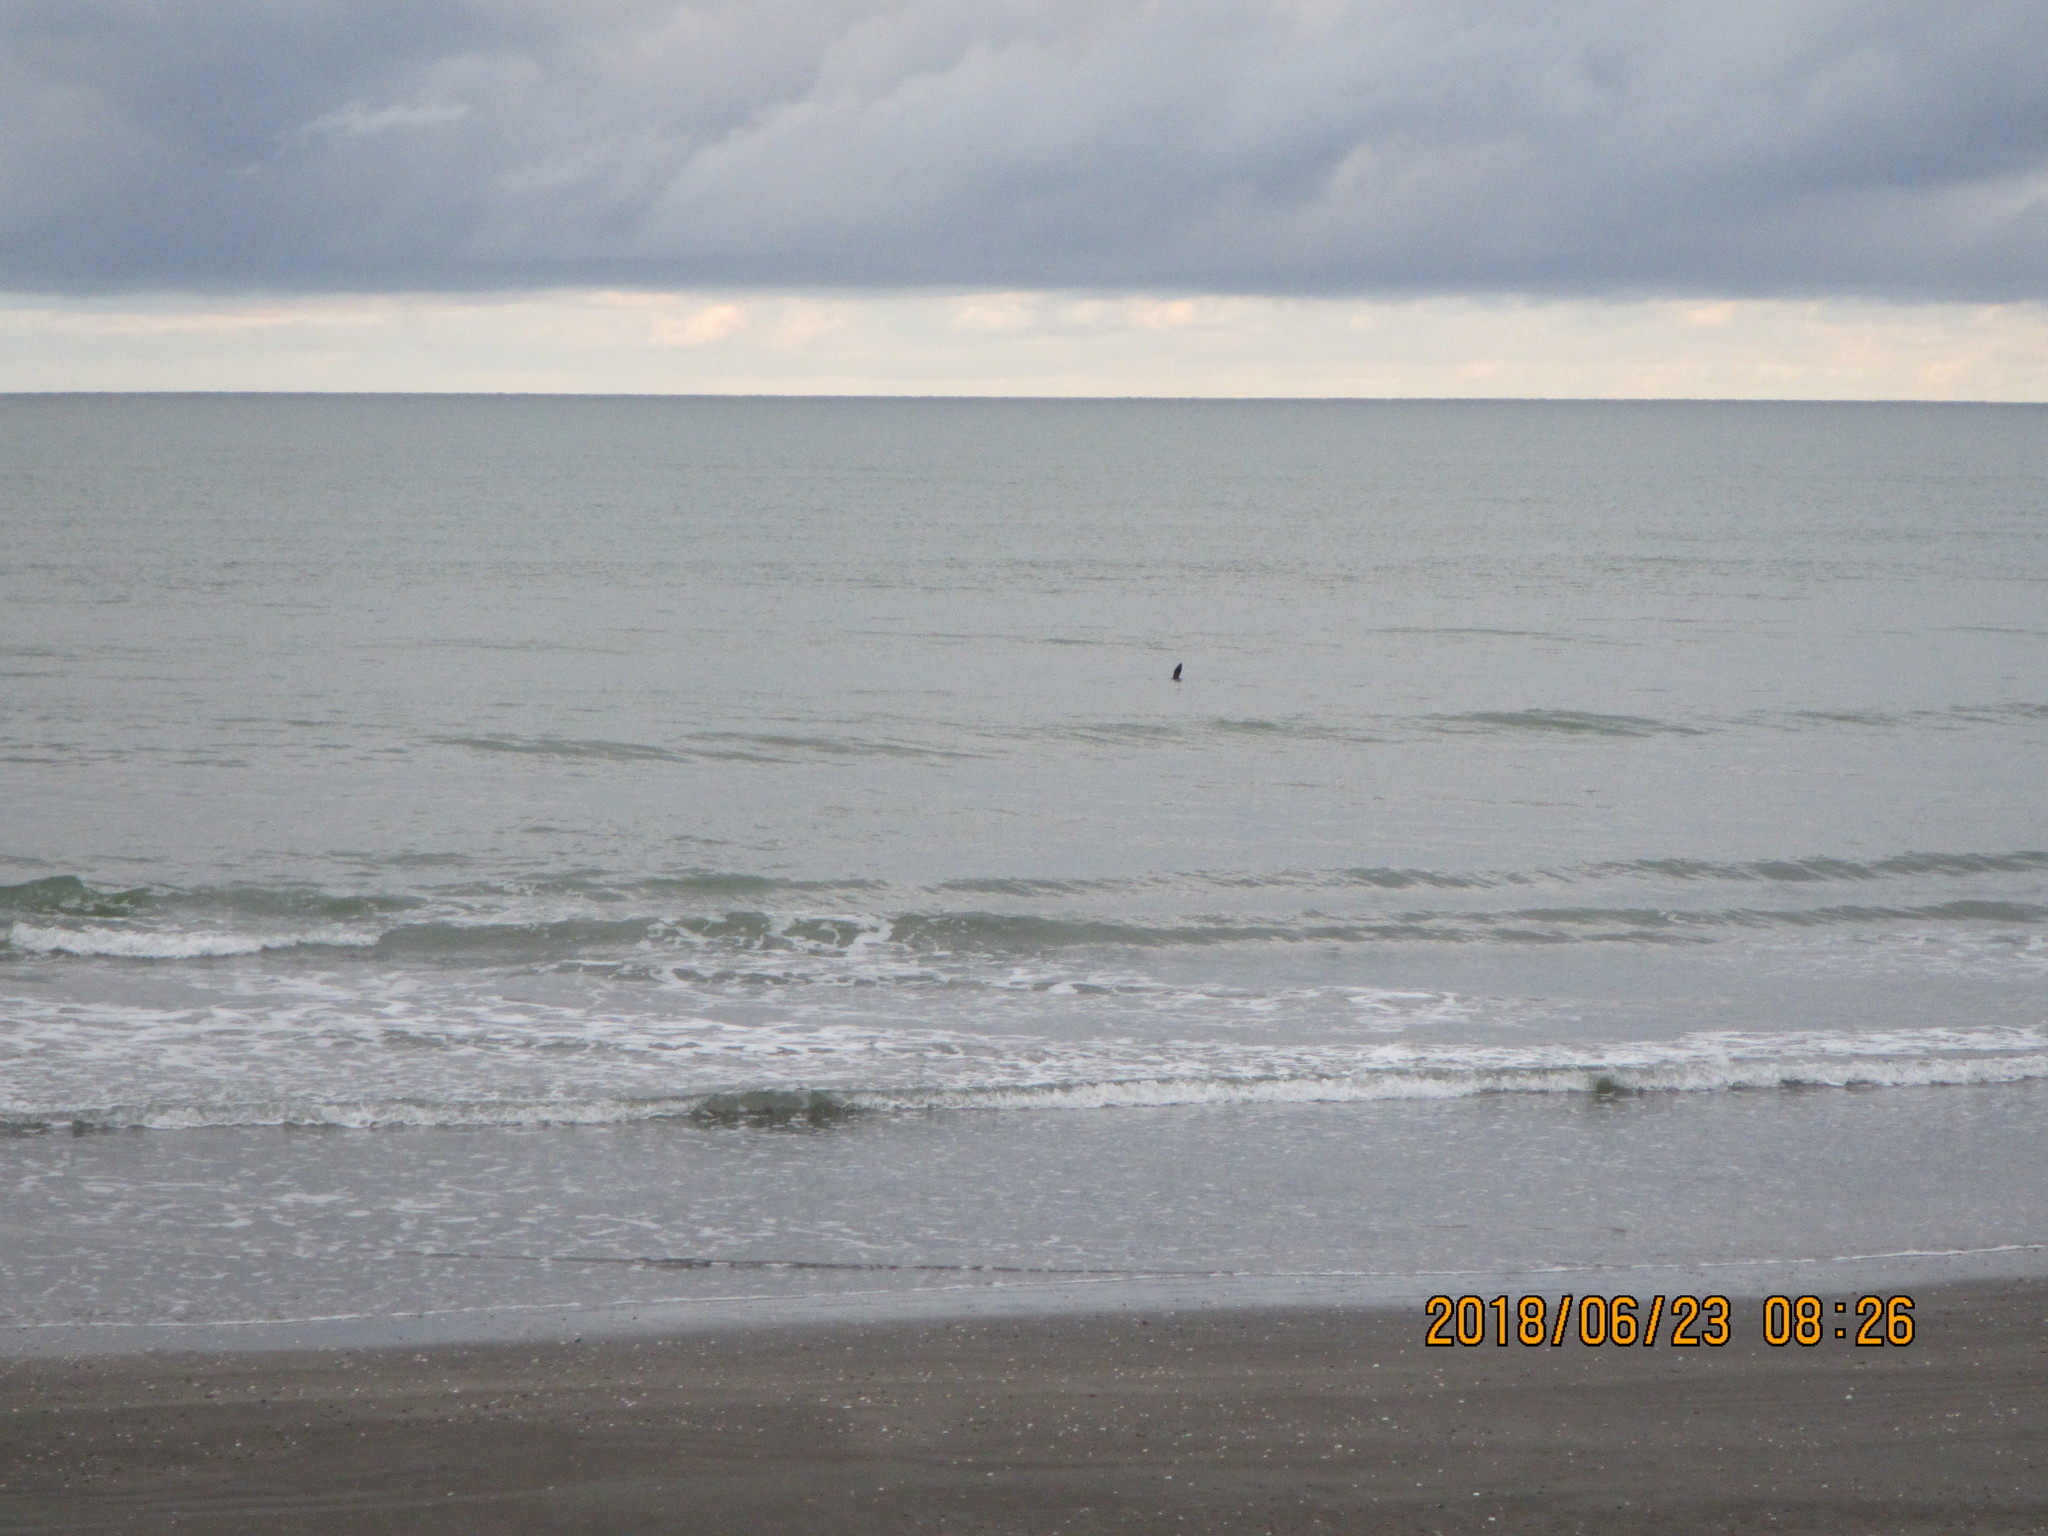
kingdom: Animalia
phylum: Chordata
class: Mammalia
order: Carnivora
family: Otariidae
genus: Arctocephalus
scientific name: Arctocephalus forsteri
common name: New zealand fur seal
